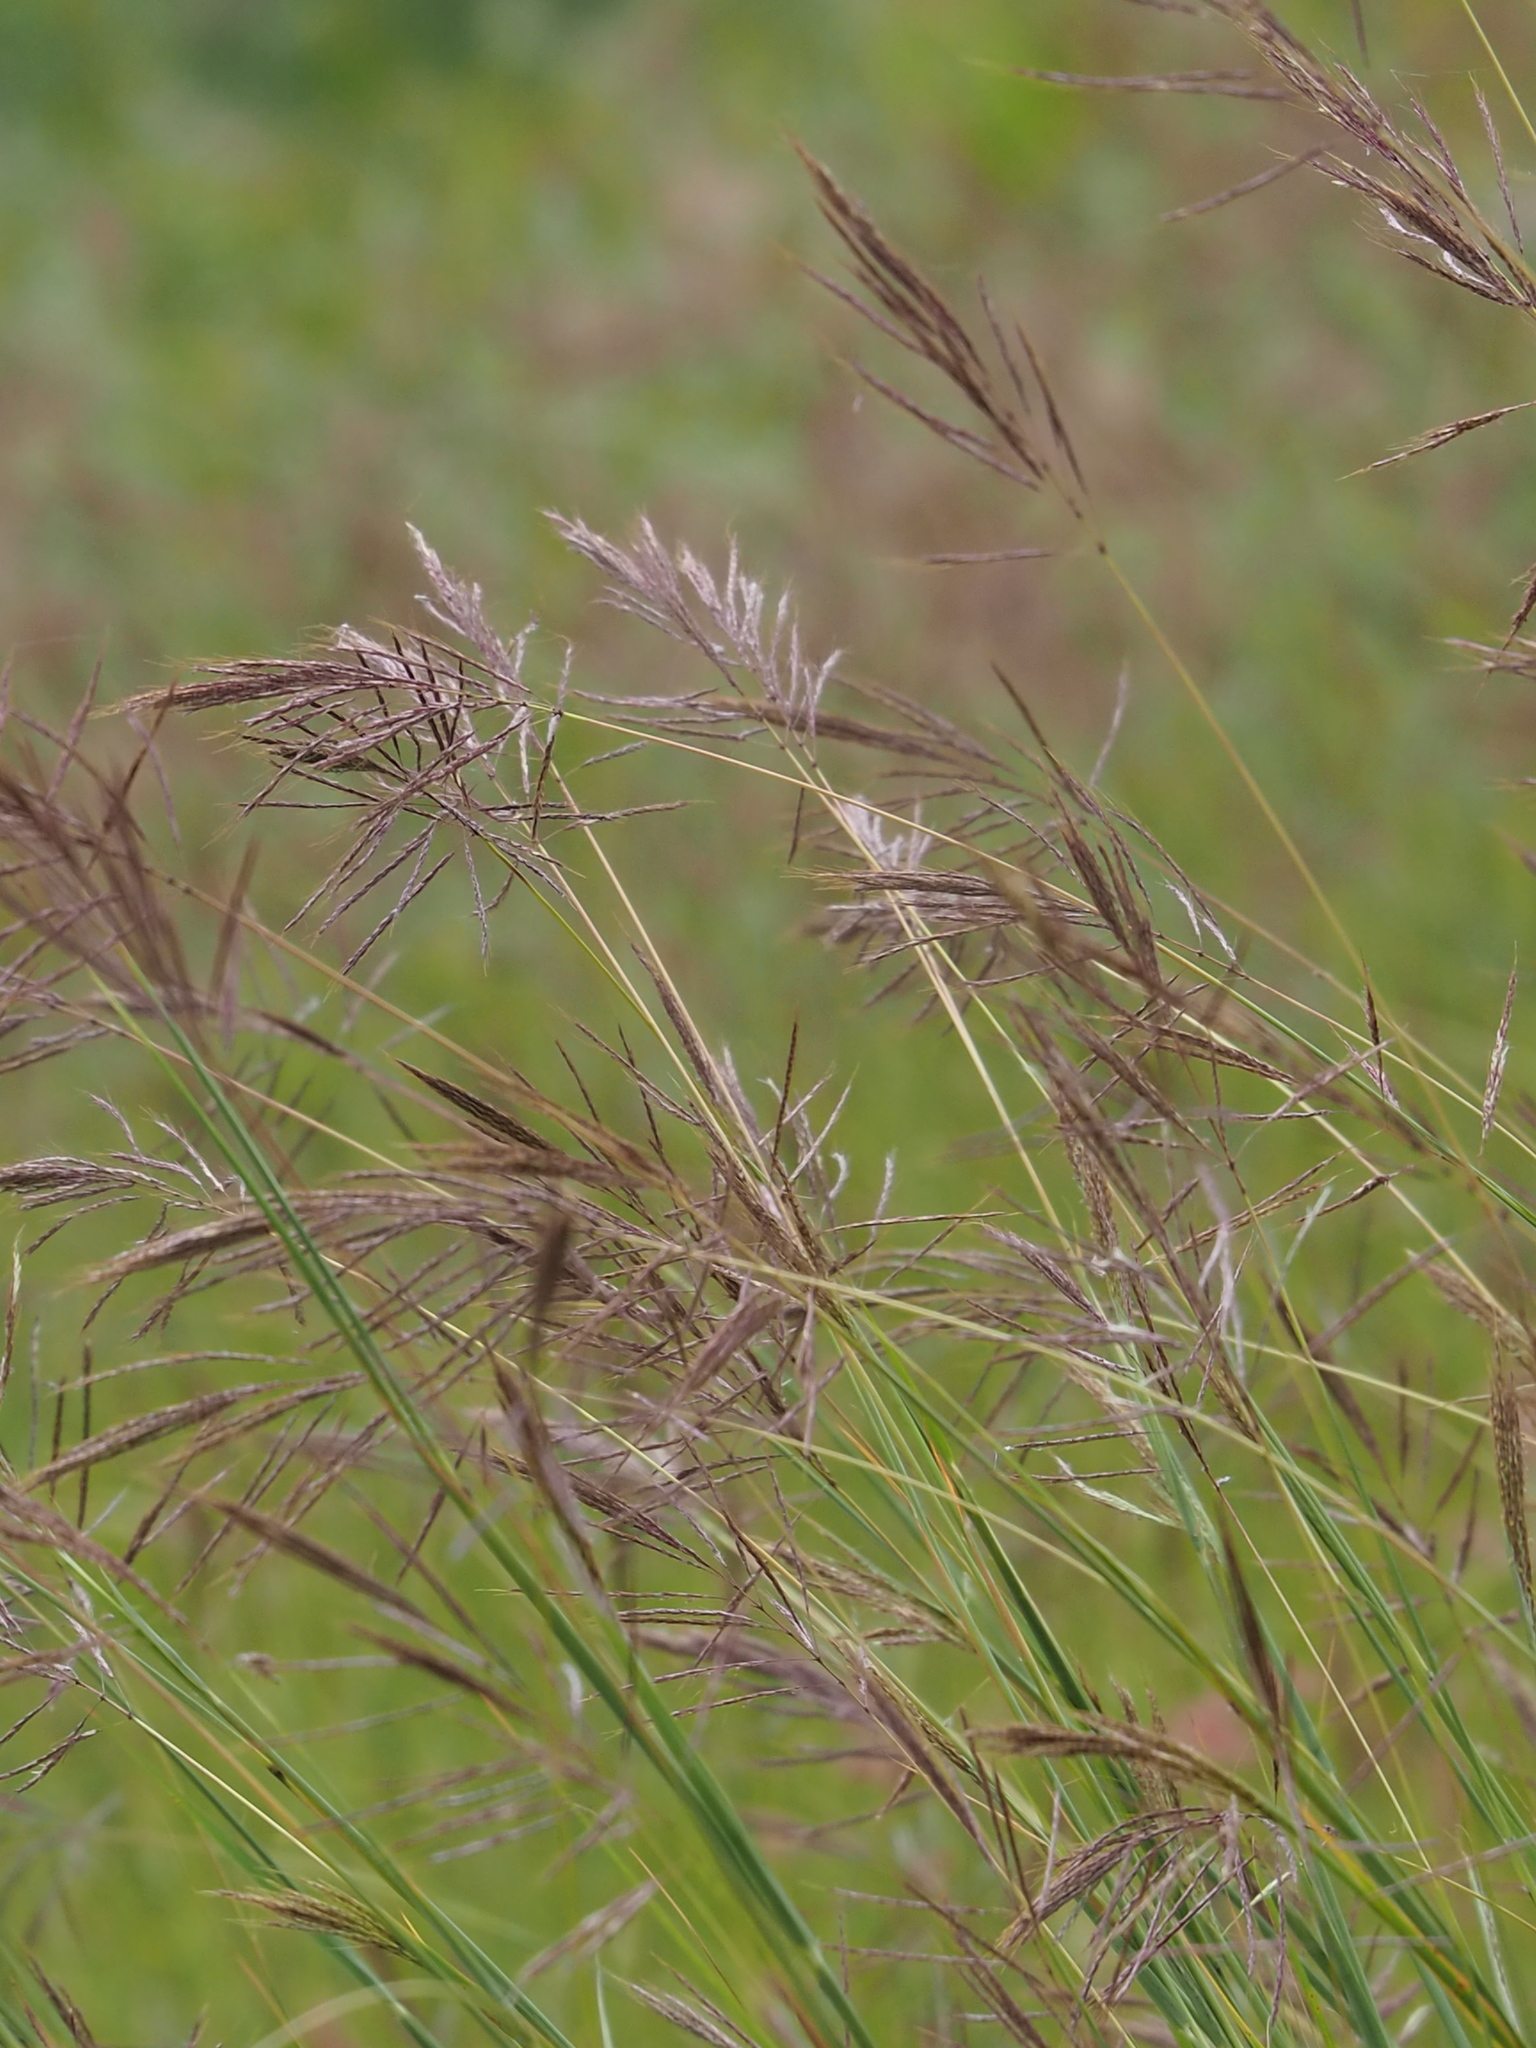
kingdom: Plantae
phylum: Tracheophyta
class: Liliopsida
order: Poales
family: Poaceae
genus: Bothriochloa
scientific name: Bothriochloa glabra
